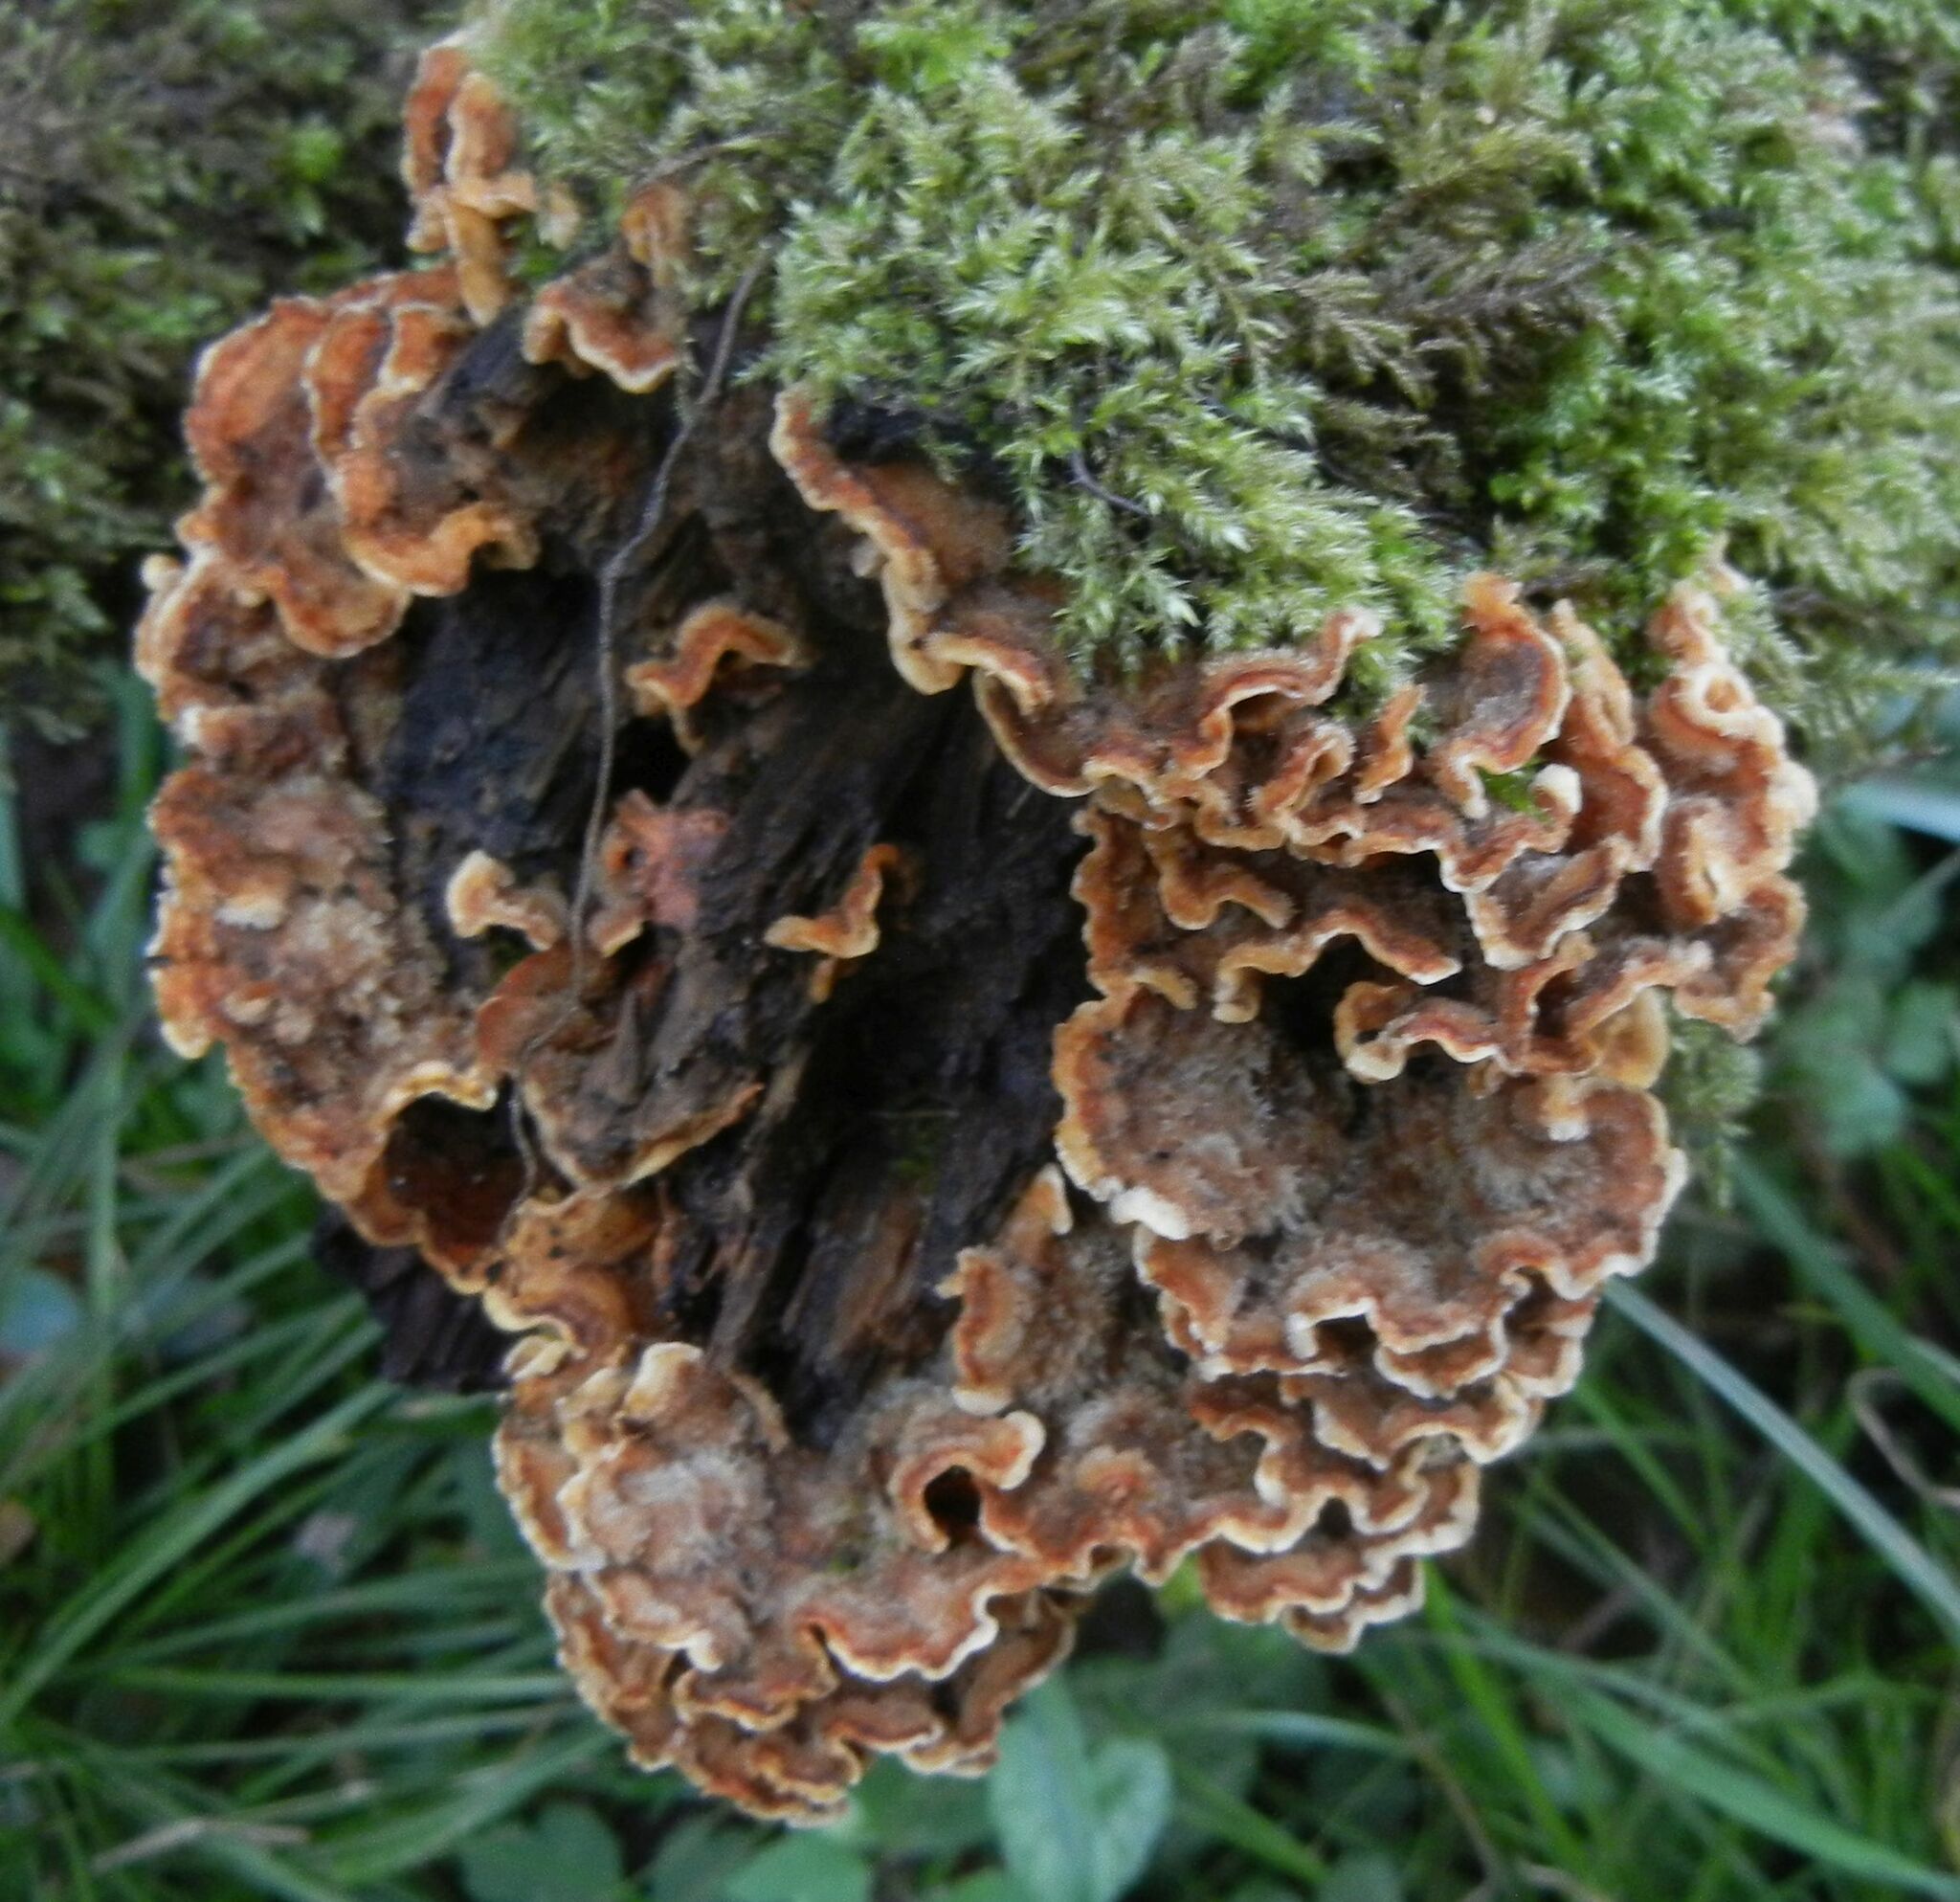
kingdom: Fungi
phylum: Basidiomycota
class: Agaricomycetes
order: Russulales
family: Stereaceae
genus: Stereum
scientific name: Stereum hirsutum
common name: Hairy curtain crust
